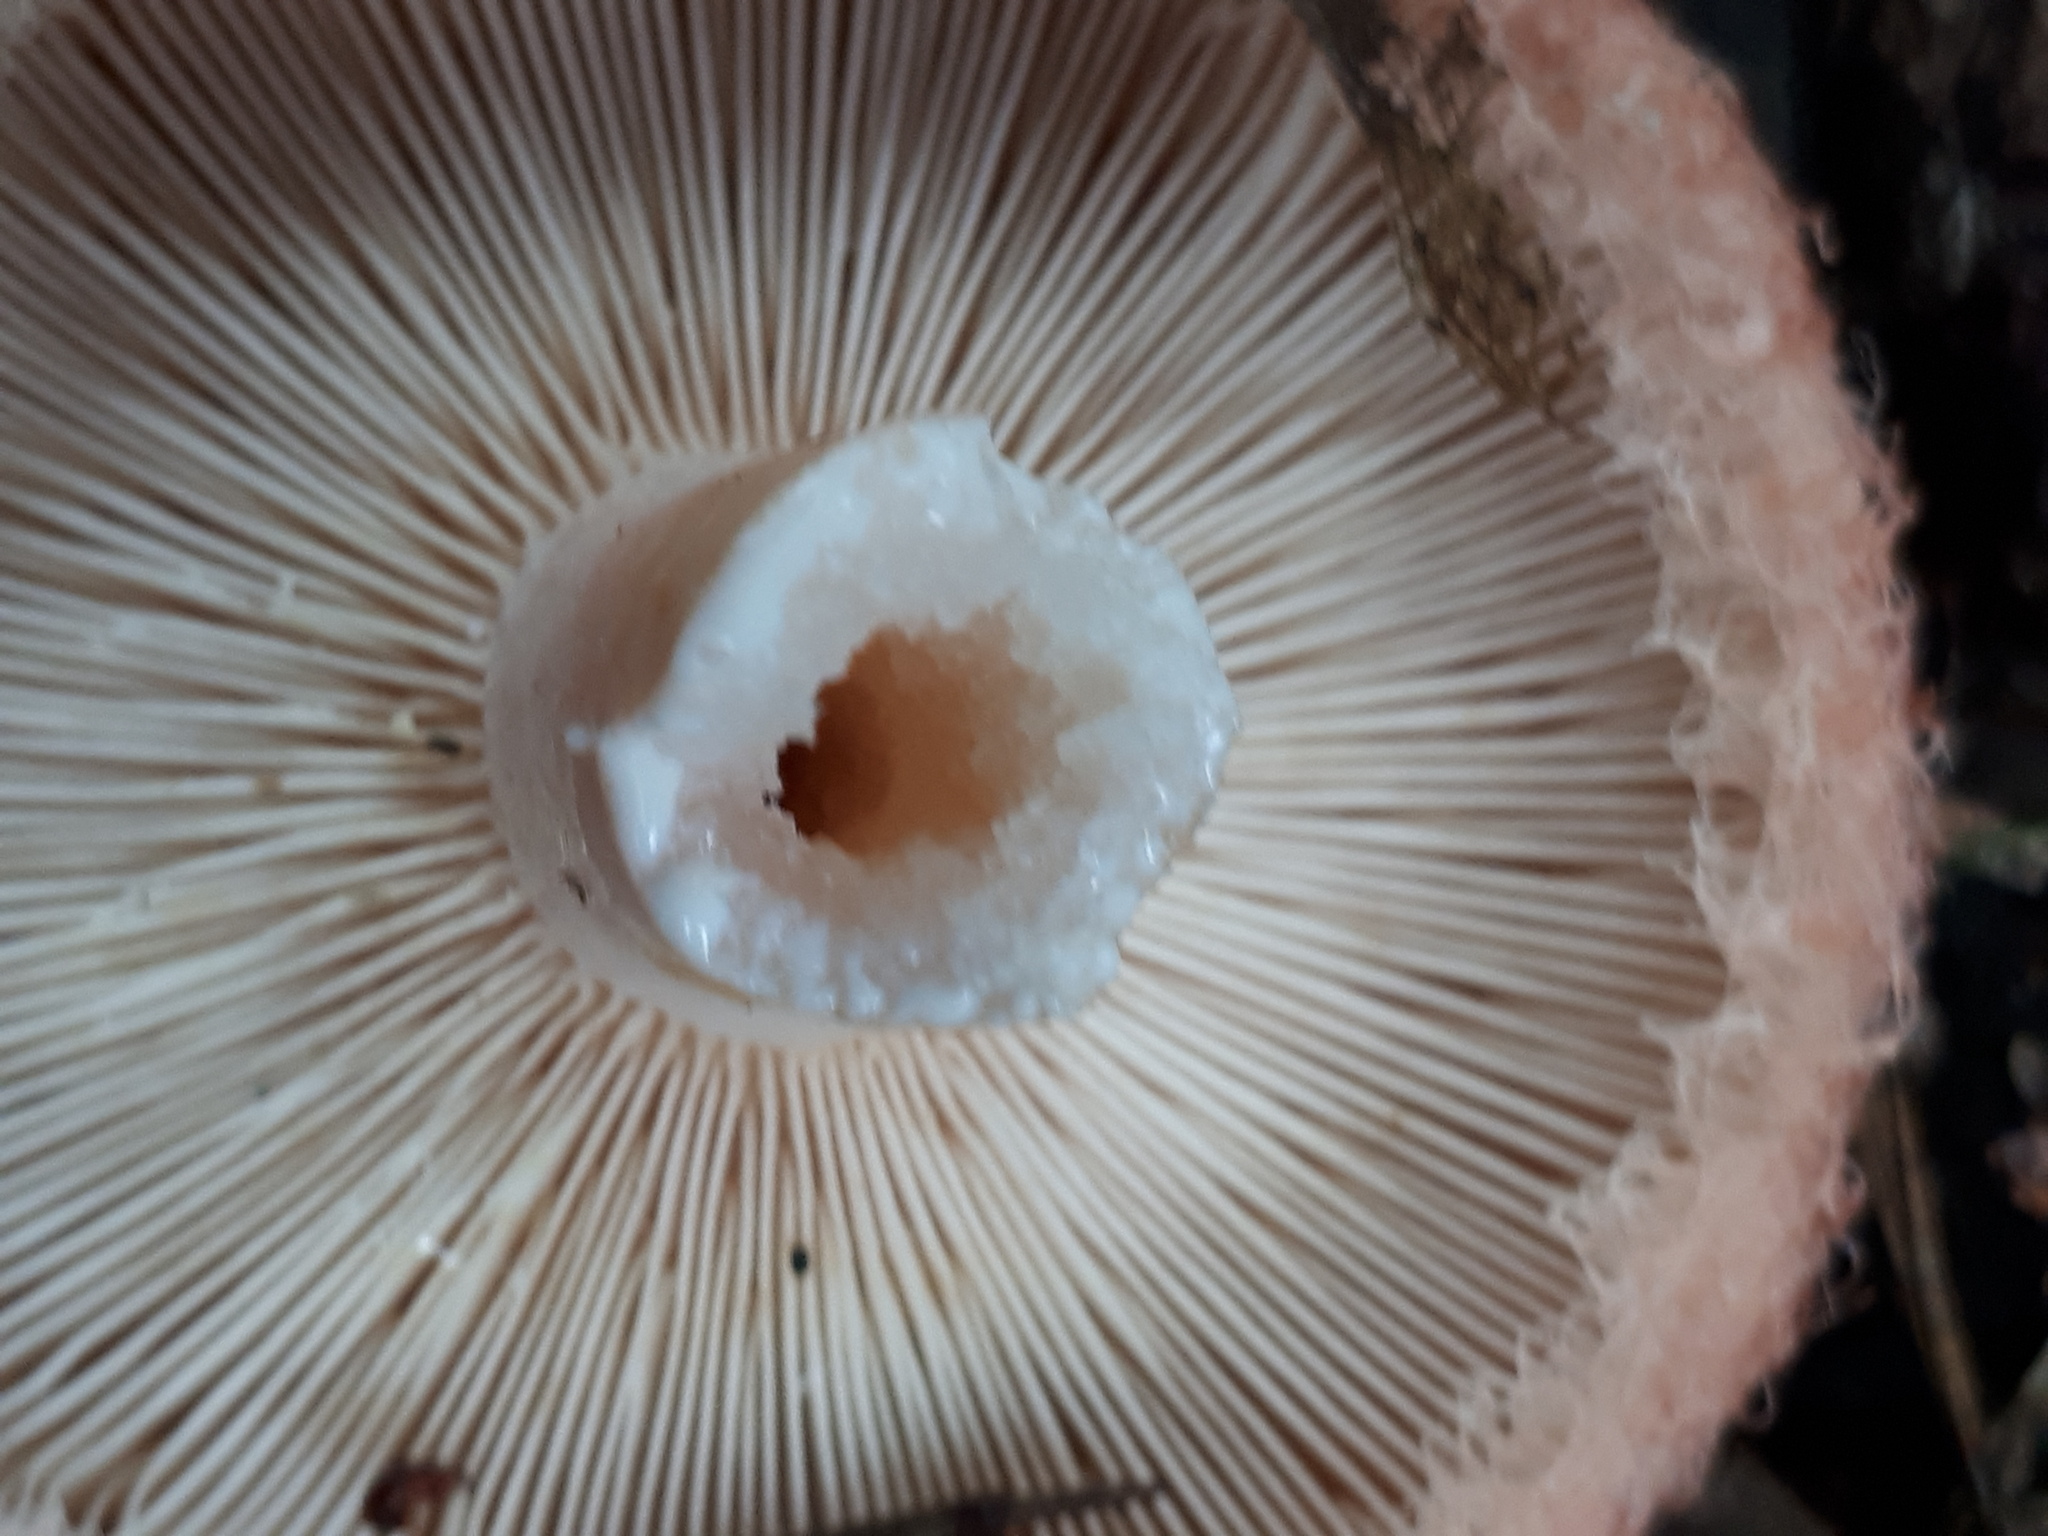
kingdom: Fungi
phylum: Basidiomycota
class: Agaricomycetes
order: Russulales
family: Russulaceae
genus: Lactarius
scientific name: Lactarius torminosus
